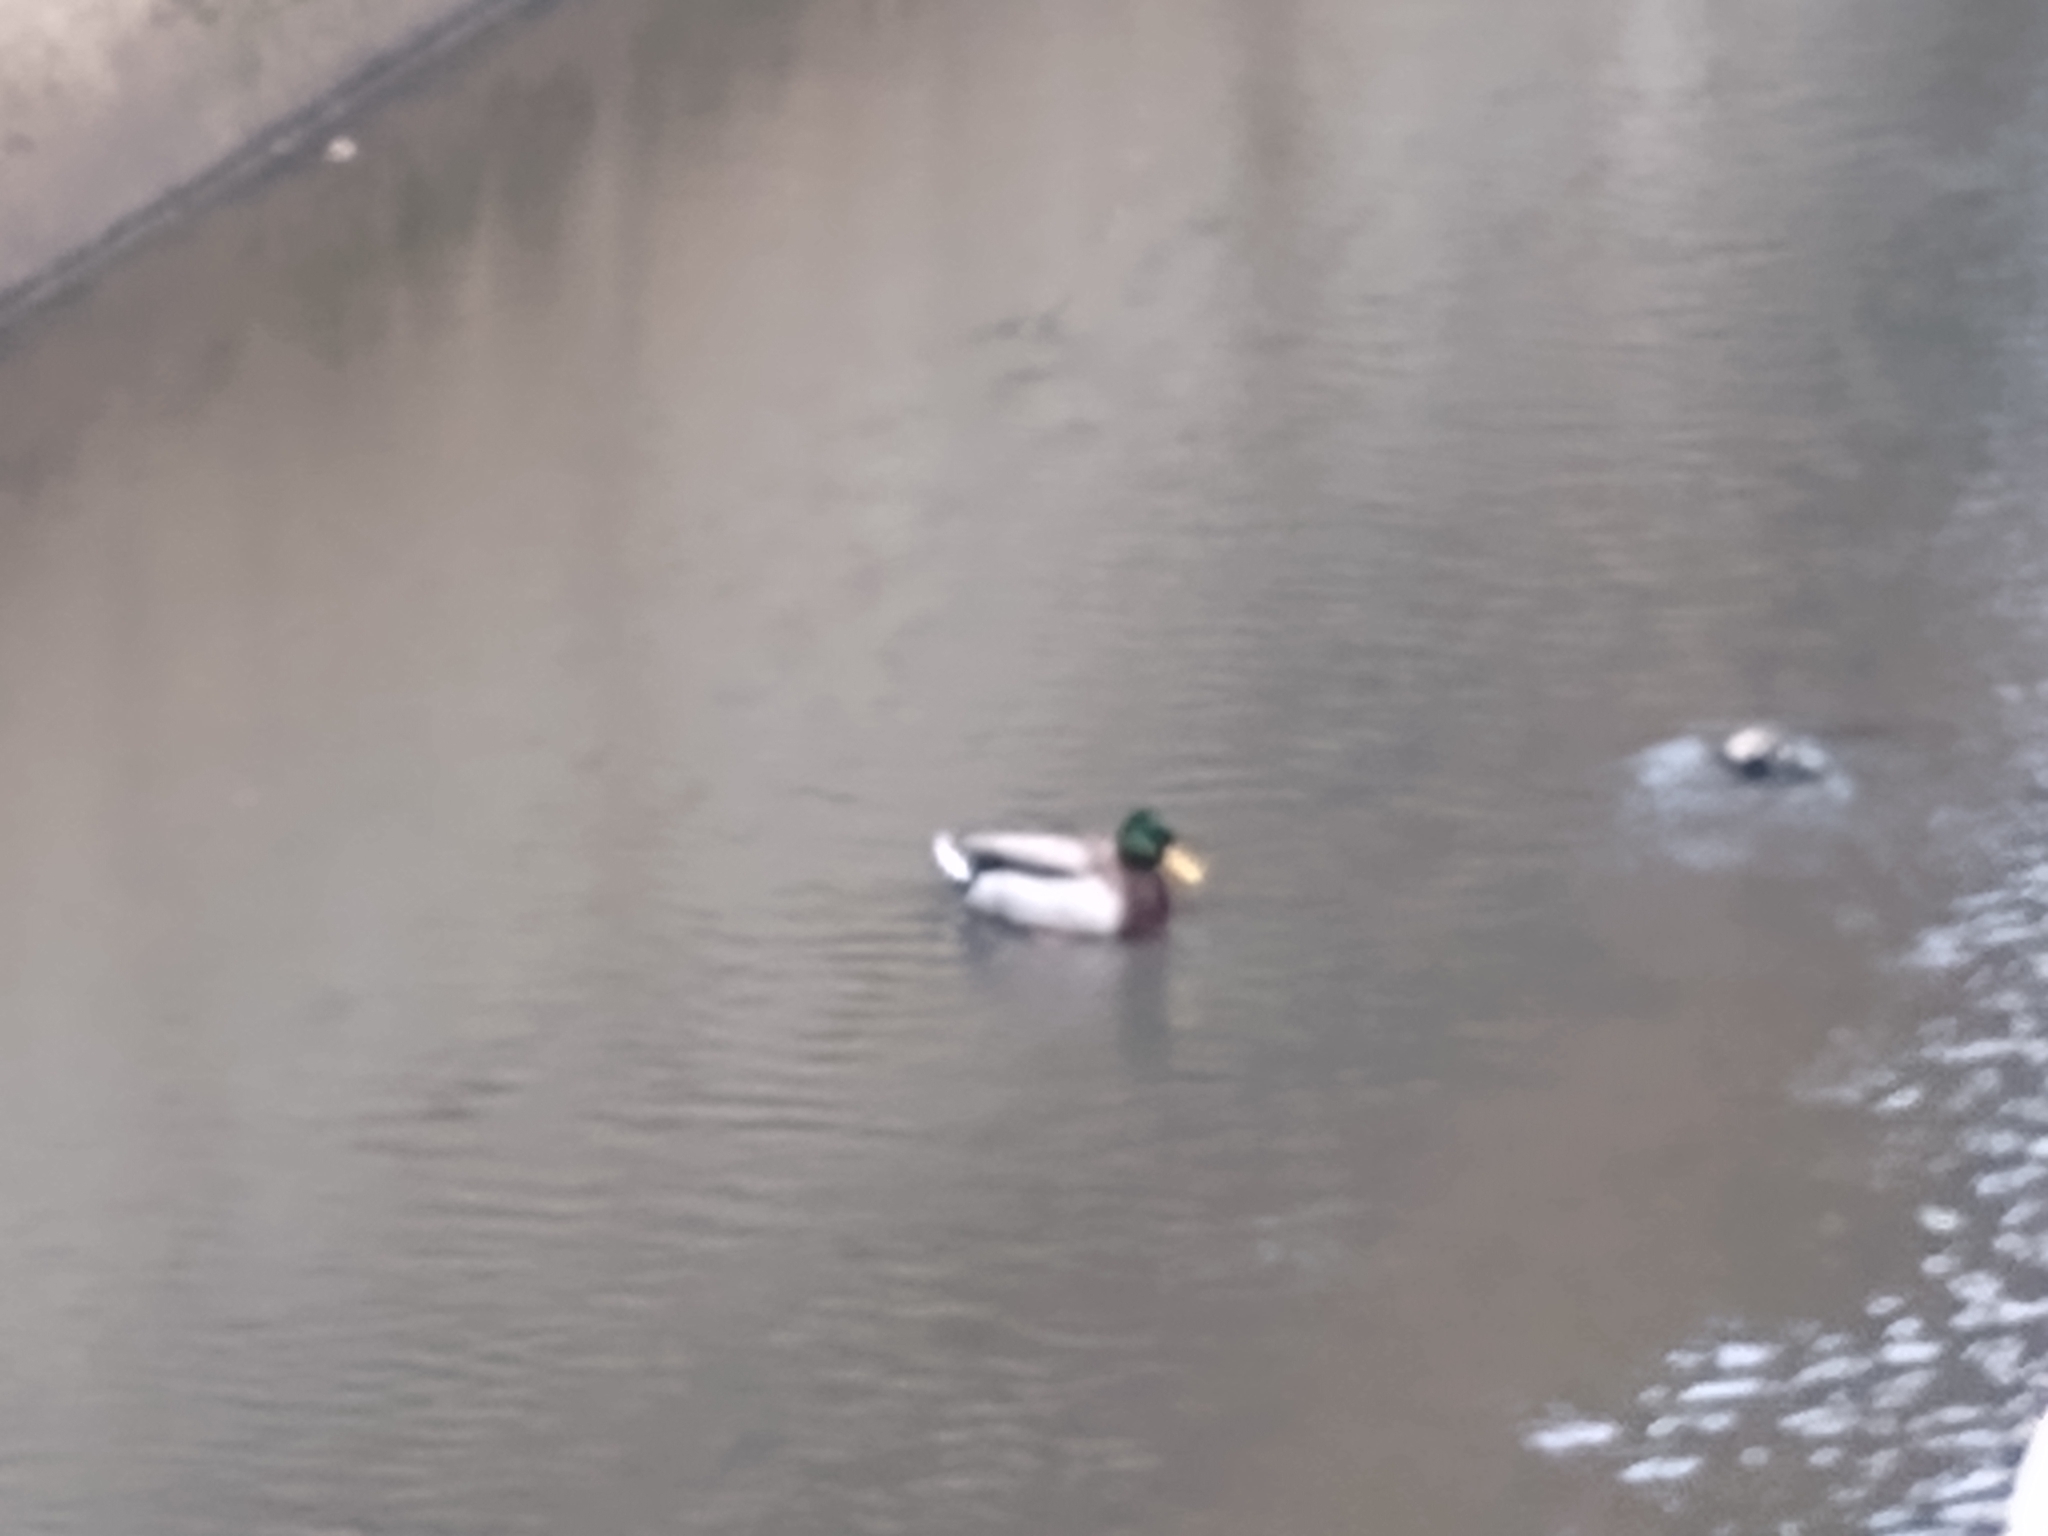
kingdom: Animalia
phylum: Chordata
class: Aves
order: Anseriformes
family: Anatidae
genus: Anas
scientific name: Anas platyrhynchos
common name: Mallard
